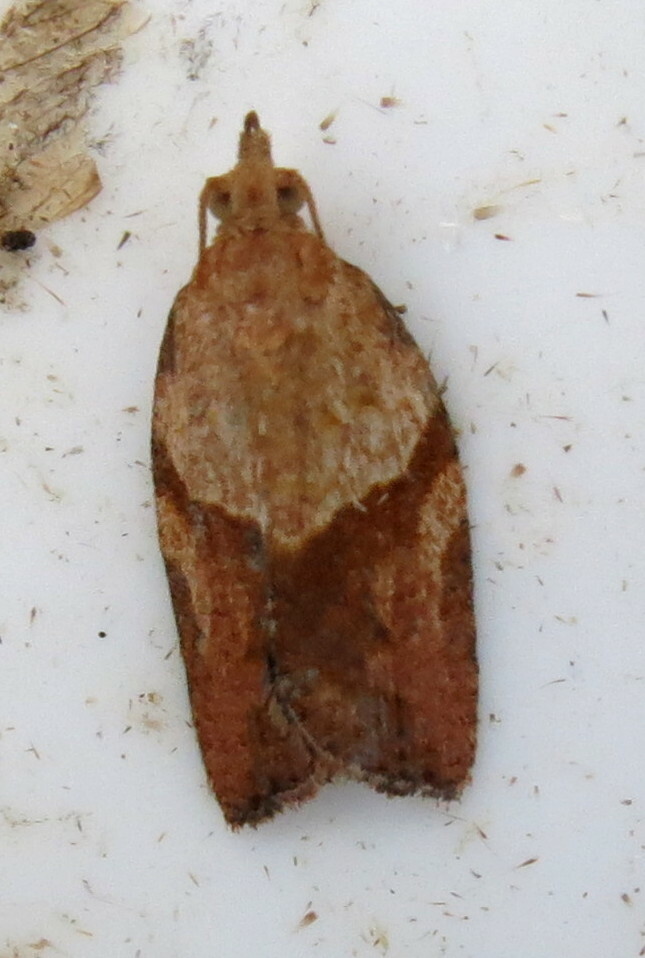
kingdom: Animalia
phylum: Arthropoda
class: Insecta
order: Lepidoptera
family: Tortricidae
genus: Epiphyas
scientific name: Epiphyas postvittana
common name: Light brown apple moth
